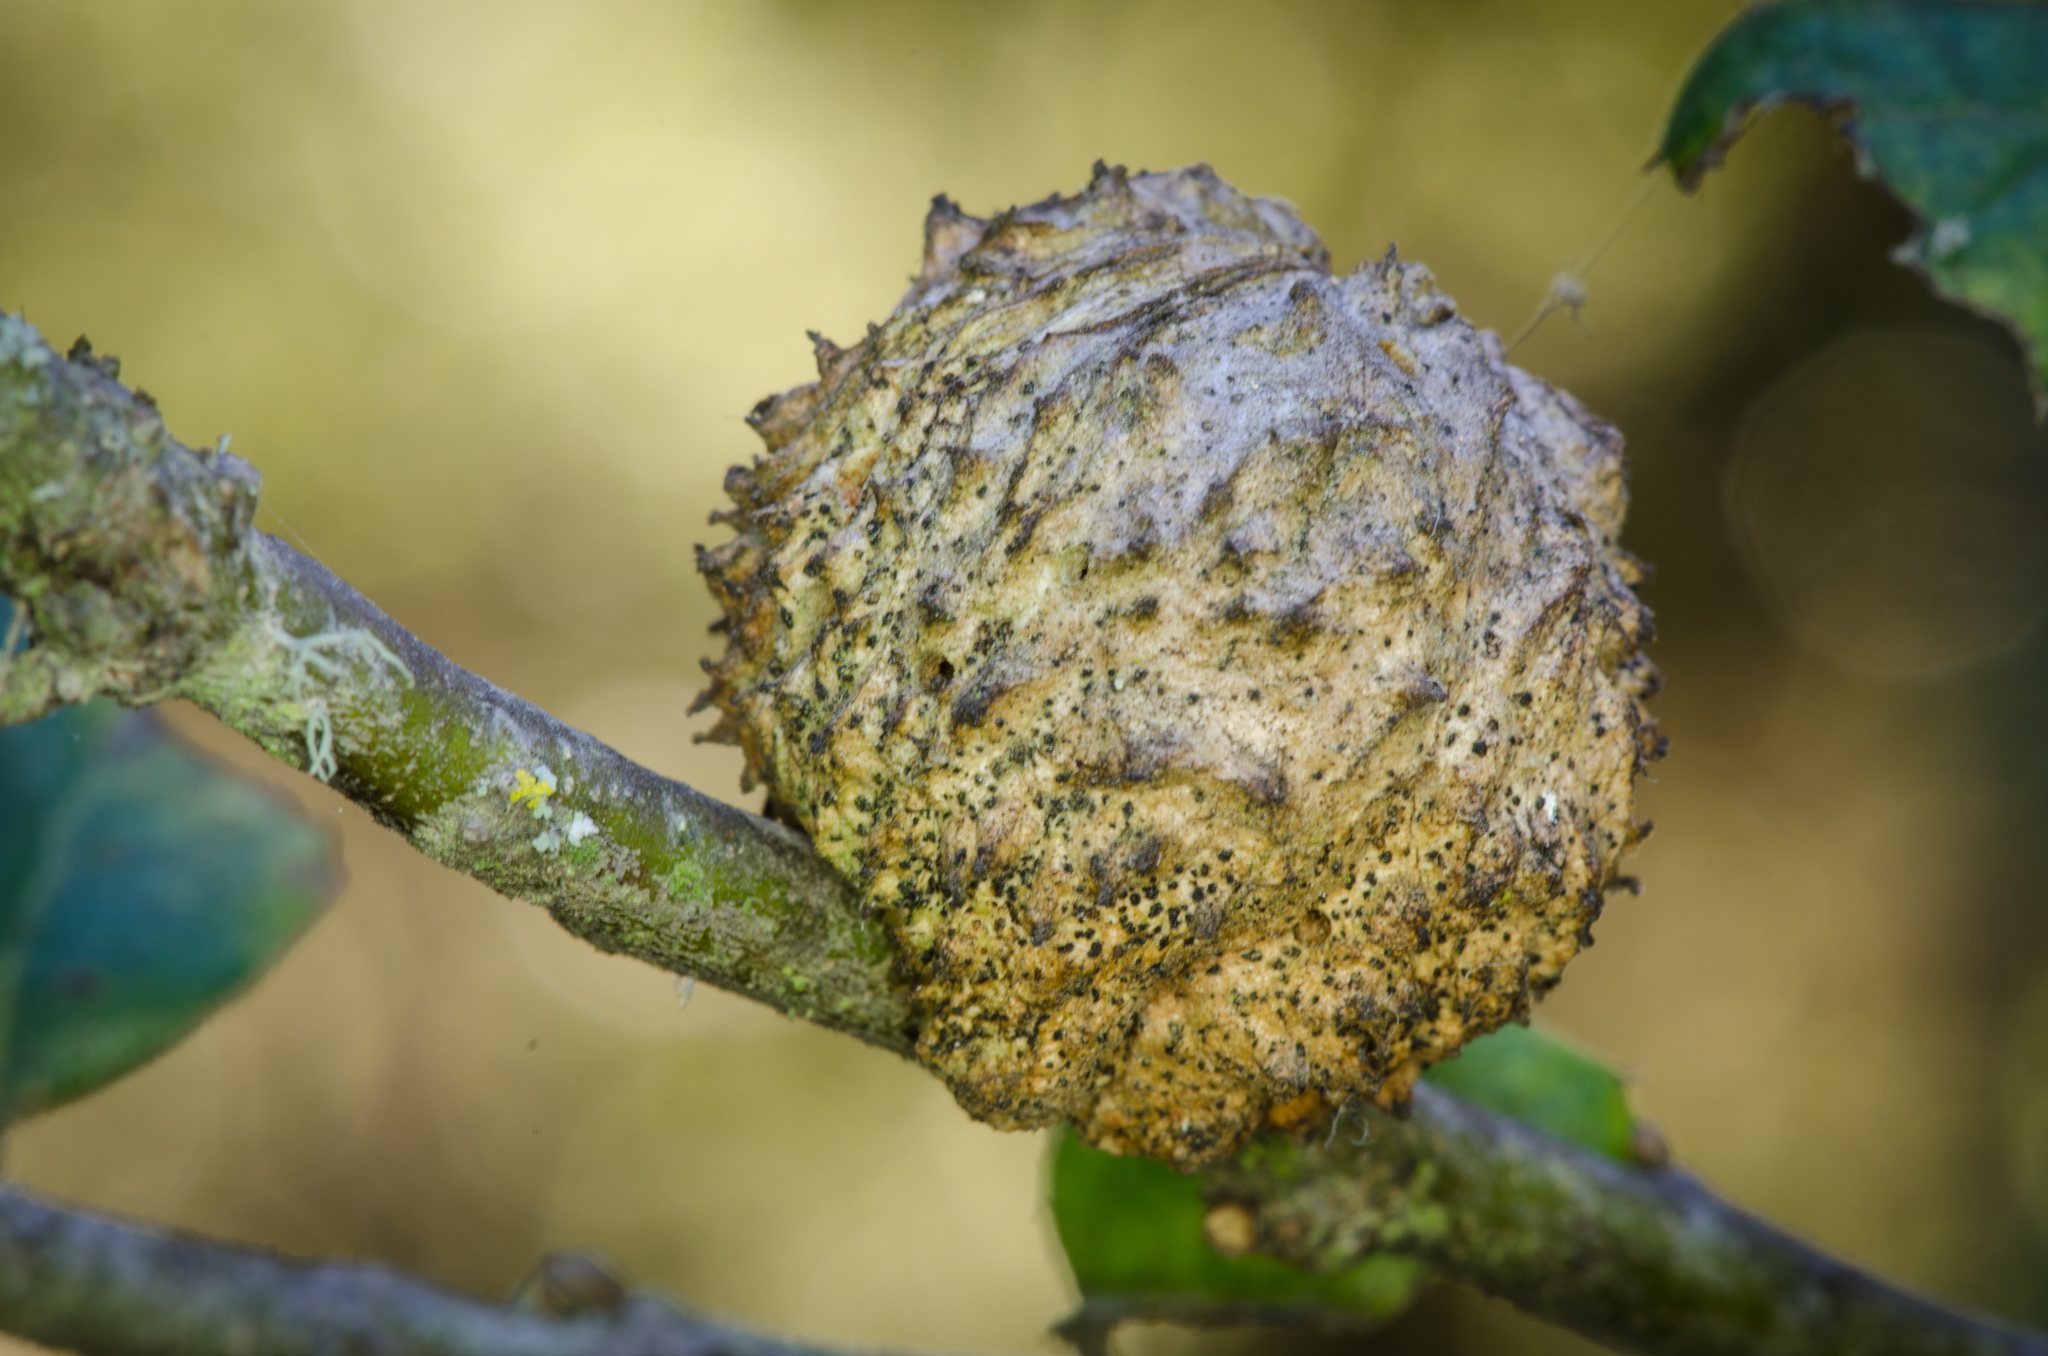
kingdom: Animalia
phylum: Arthropoda
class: Insecta
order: Hymenoptera
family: Cynipidae
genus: Amphibolips
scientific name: Amphibolips quercuspomiformis
